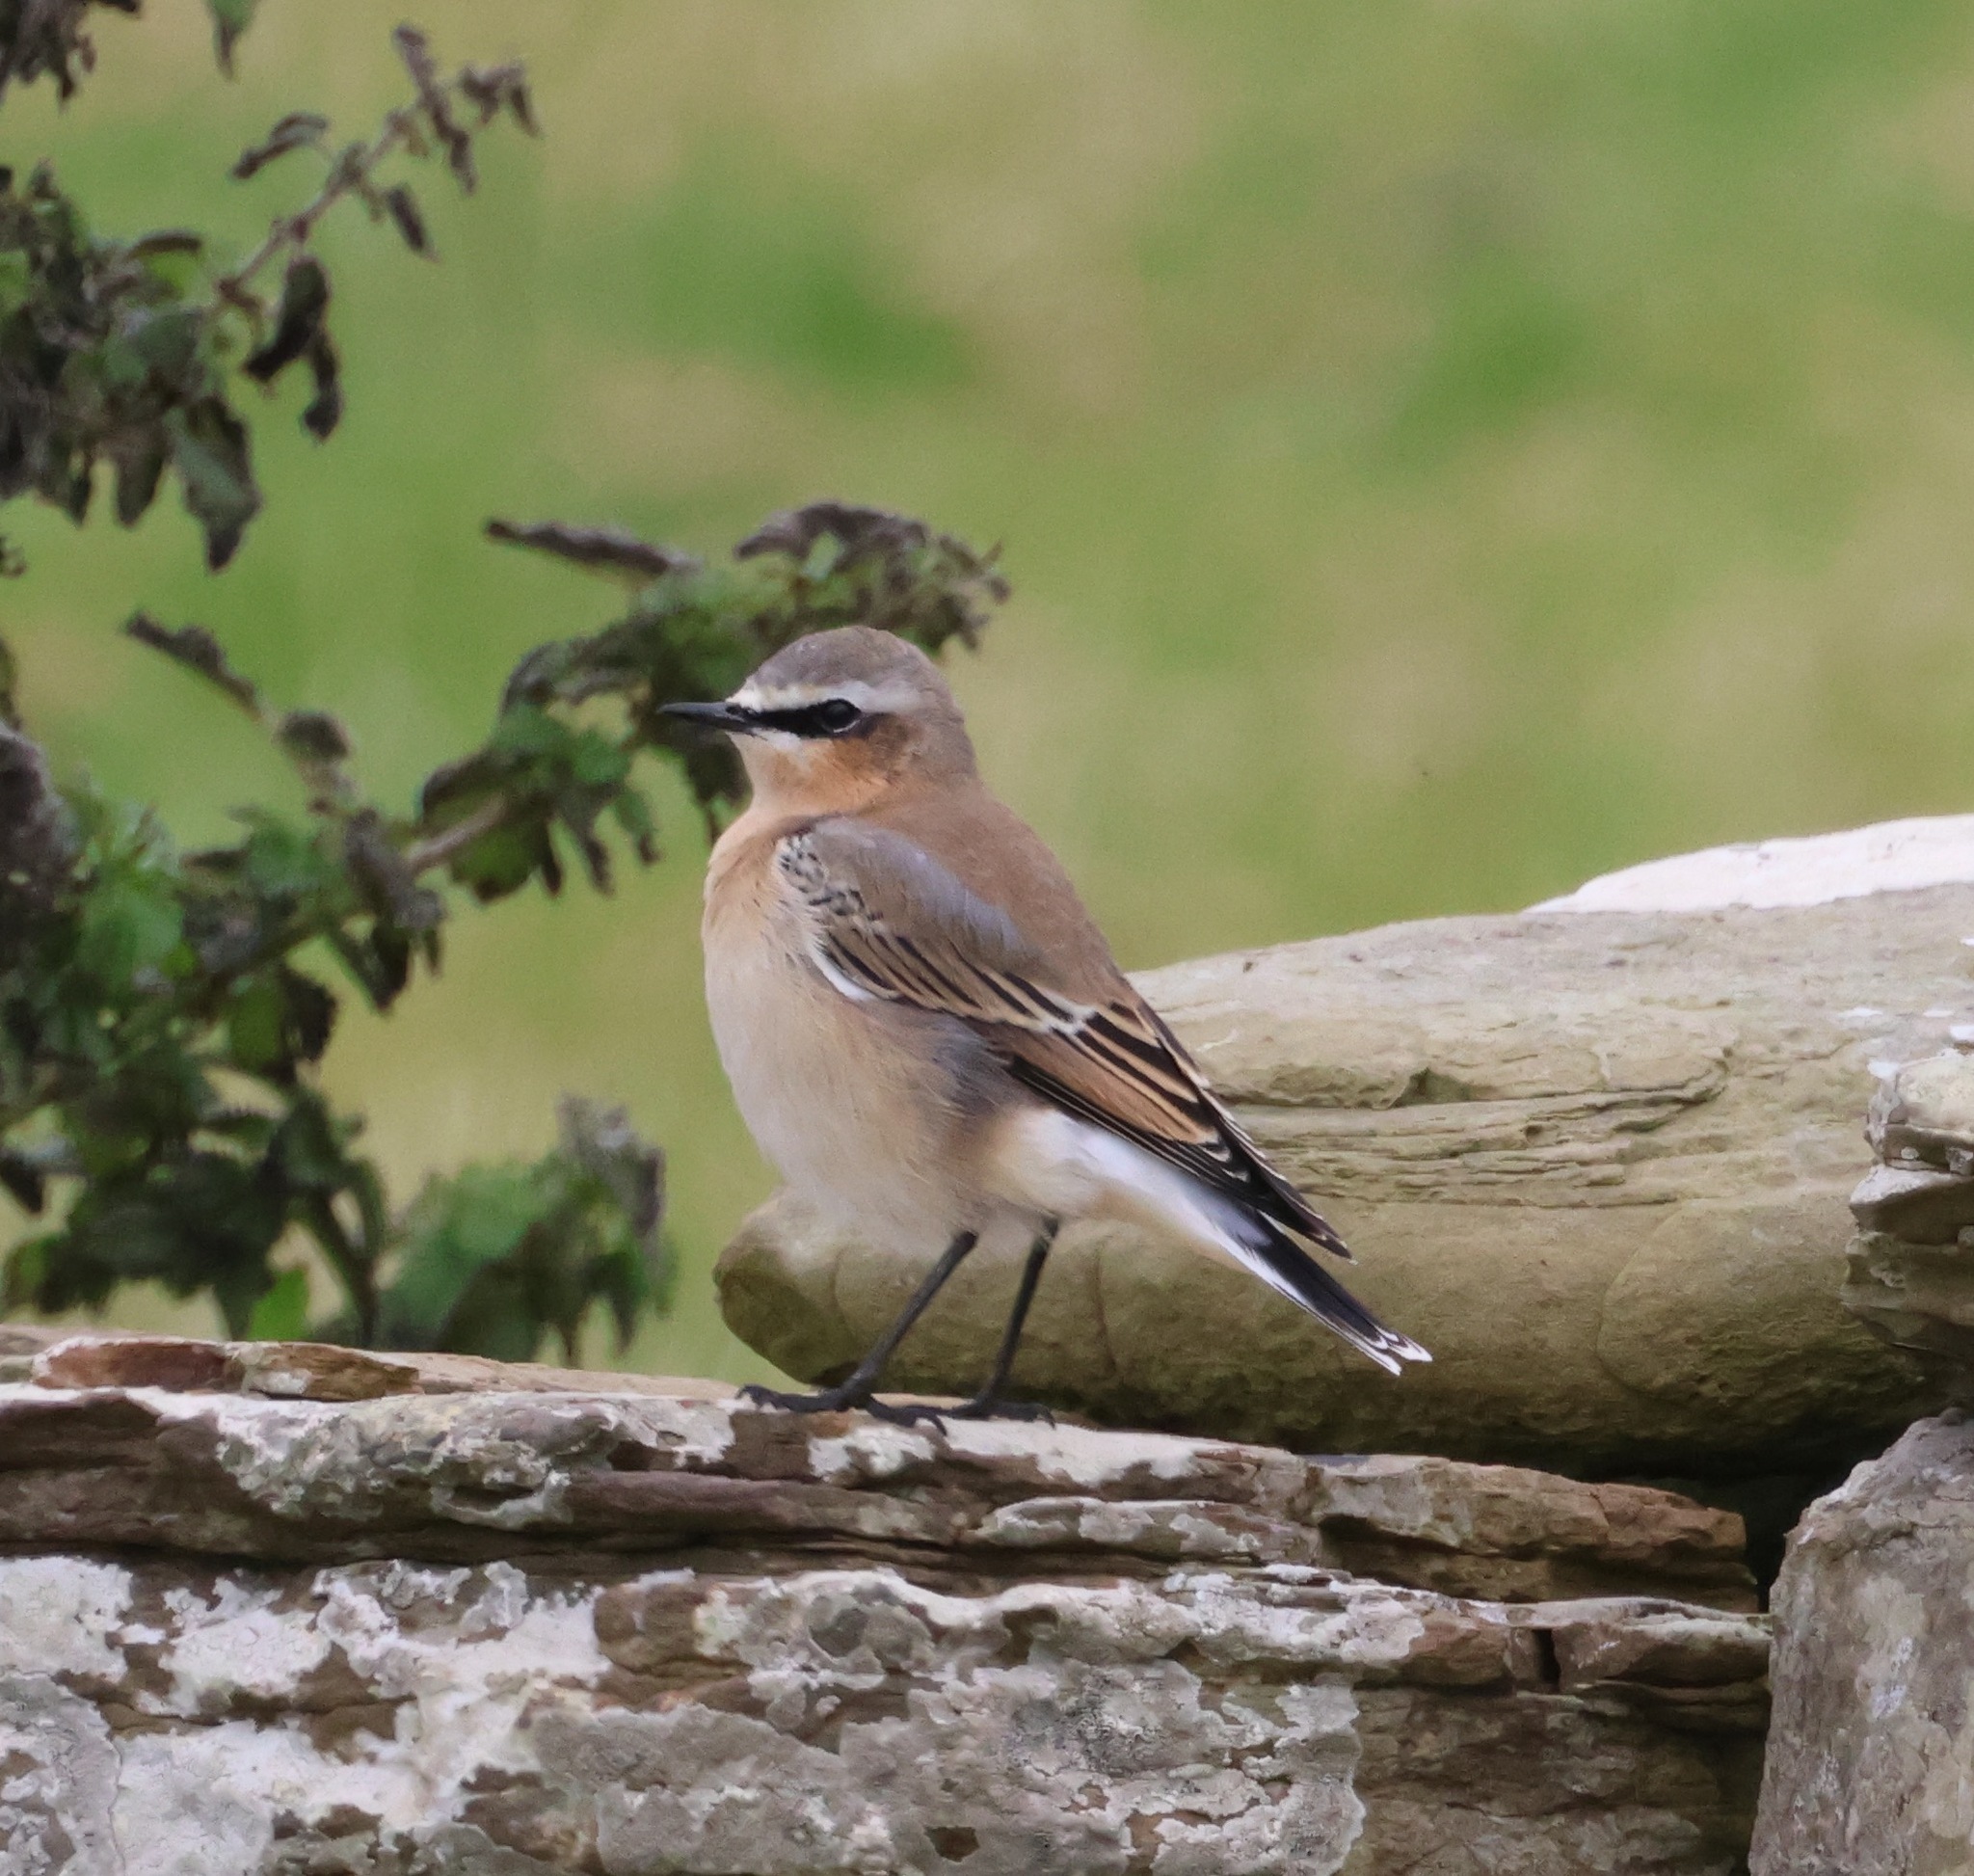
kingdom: Animalia
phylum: Chordata
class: Aves
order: Passeriformes
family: Muscicapidae
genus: Oenanthe
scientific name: Oenanthe oenanthe
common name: Northern wheatear
